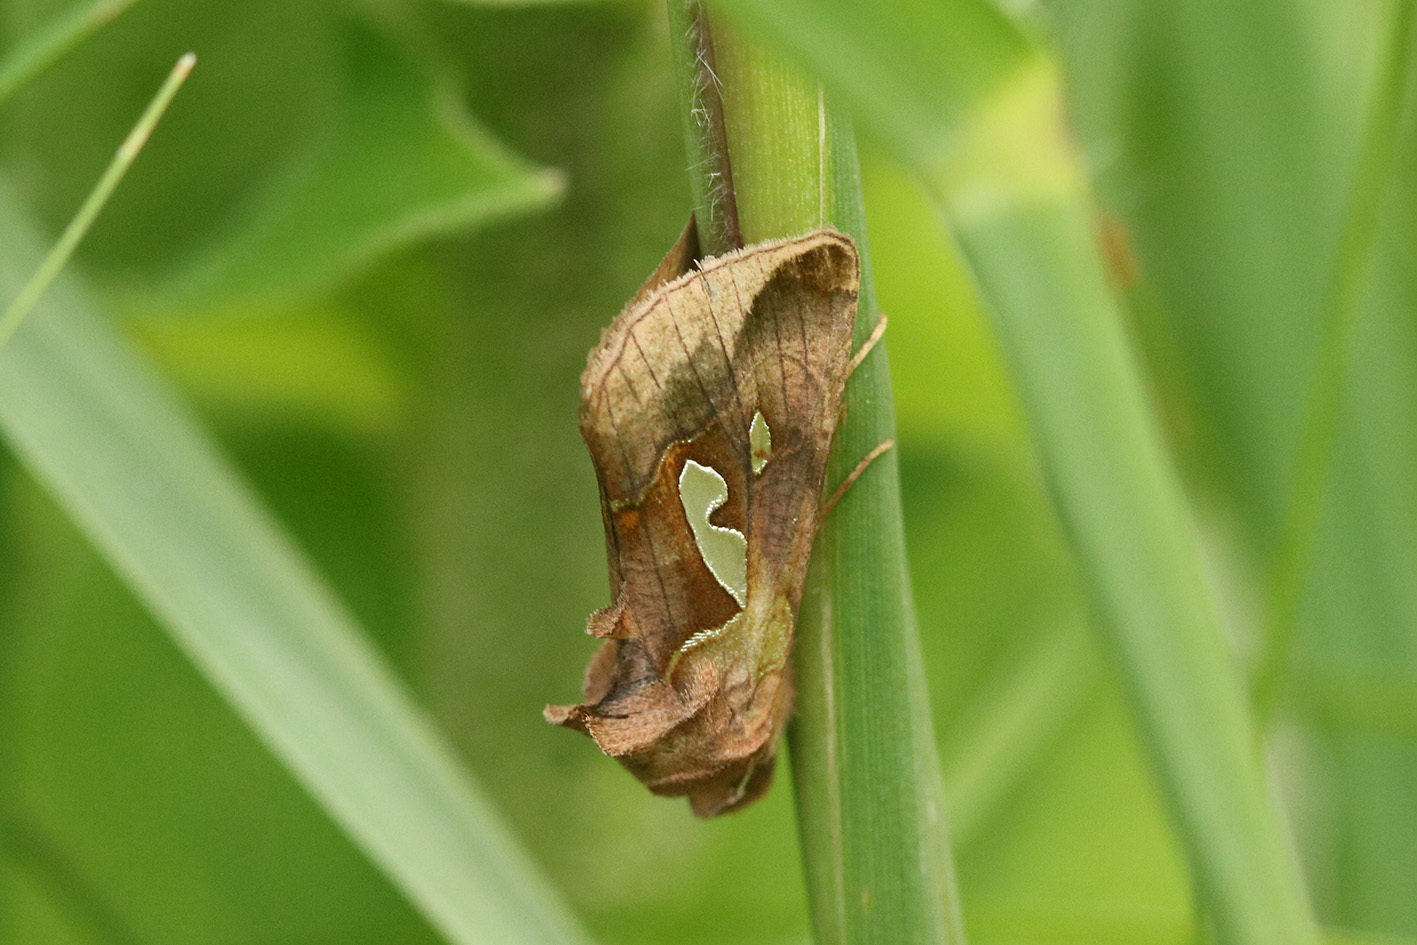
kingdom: Animalia
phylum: Arthropoda
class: Insecta
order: Lepidoptera
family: Noctuidae
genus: Megalographa
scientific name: Megalographa bonaerensis
